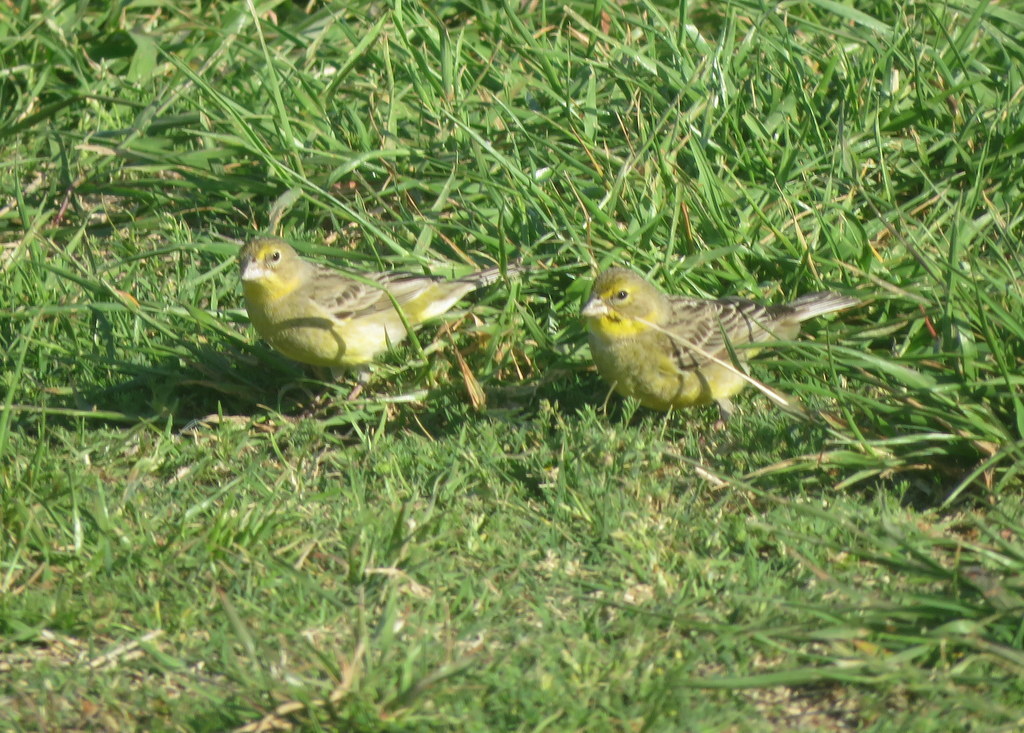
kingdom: Animalia
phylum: Chordata
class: Aves
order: Passeriformes
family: Thraupidae
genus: Sicalis
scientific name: Sicalis luteola
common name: Grassland yellow-finch
